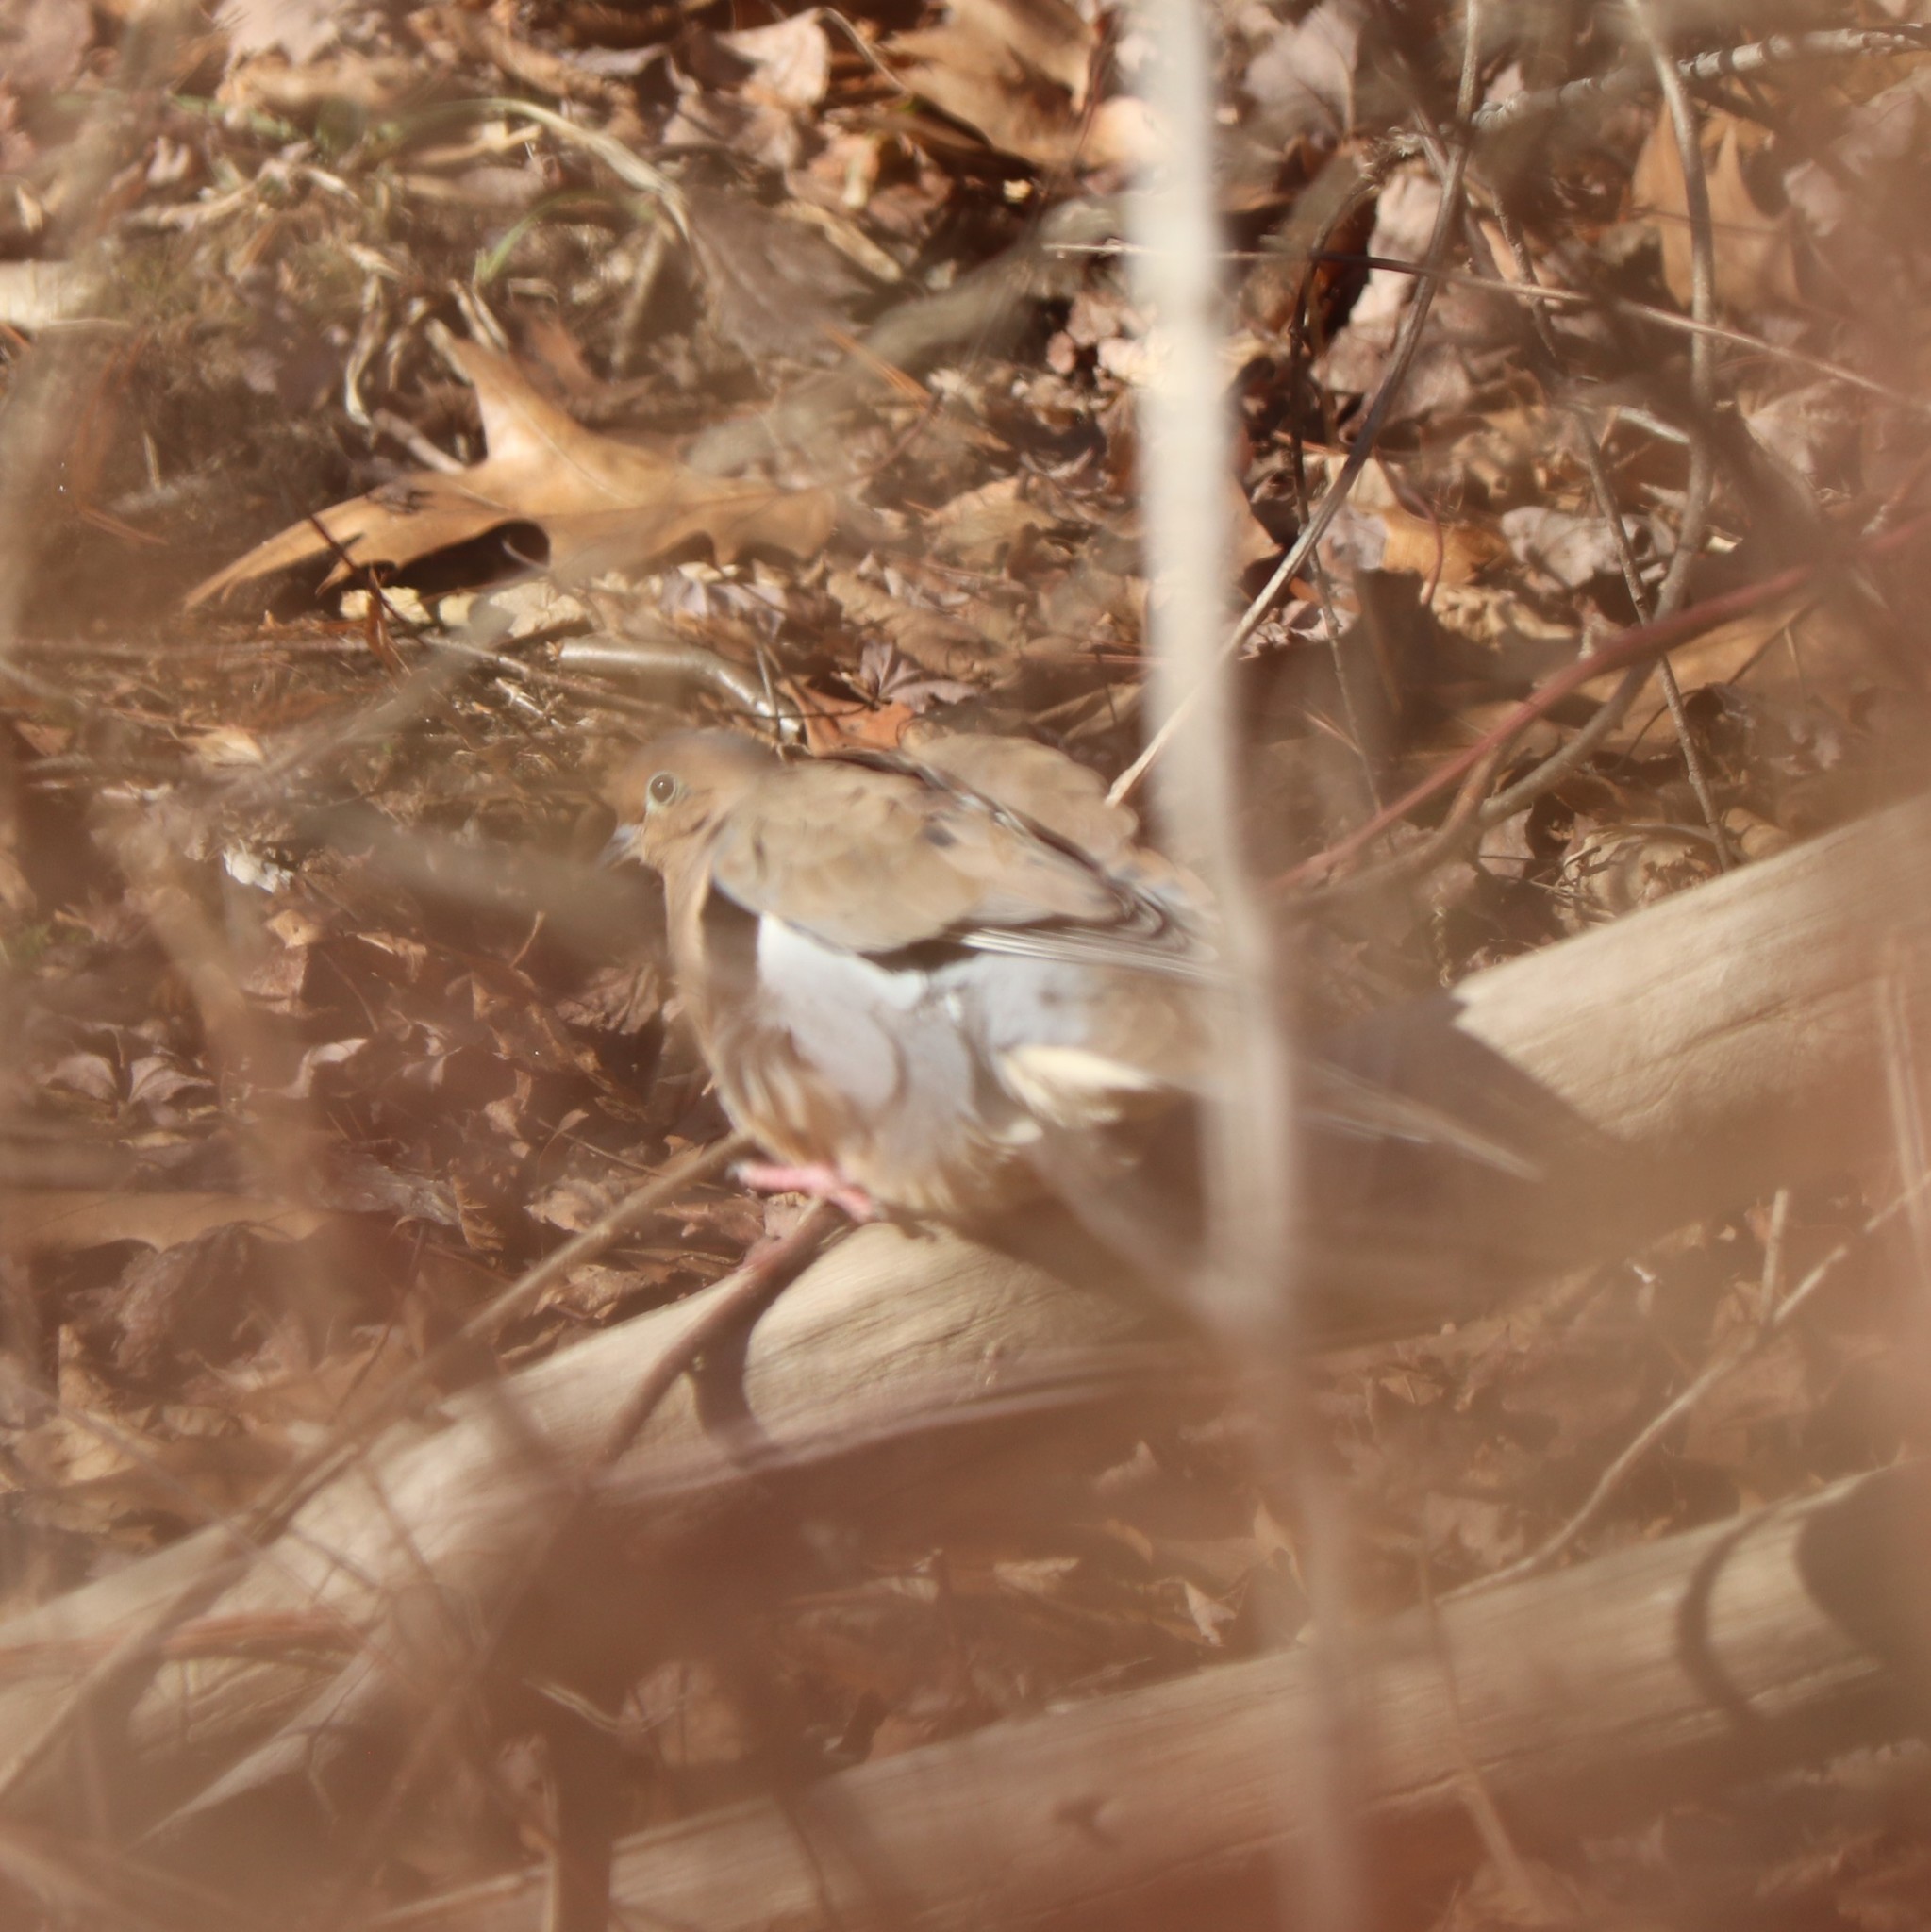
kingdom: Animalia
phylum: Chordata
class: Aves
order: Columbiformes
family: Columbidae
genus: Zenaida
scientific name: Zenaida macroura
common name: Mourning dove
